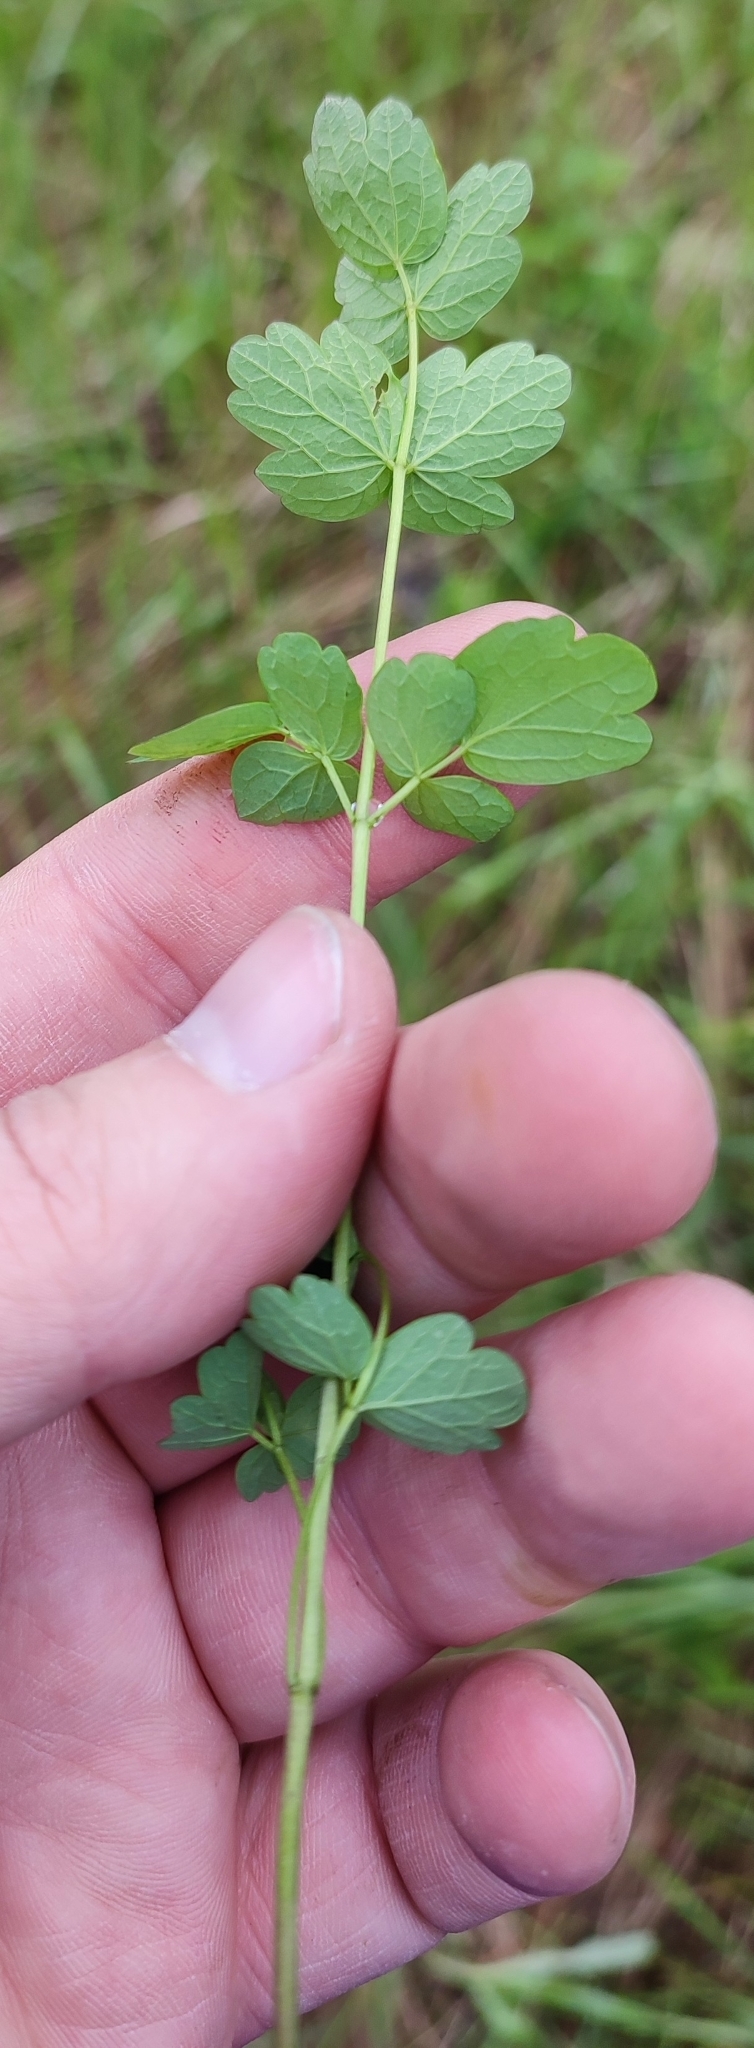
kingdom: Plantae
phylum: Tracheophyta
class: Magnoliopsida
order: Ranunculales
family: Ranunculaceae
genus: Thalictrum
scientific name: Thalictrum minus
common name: Lesser meadow-rue
